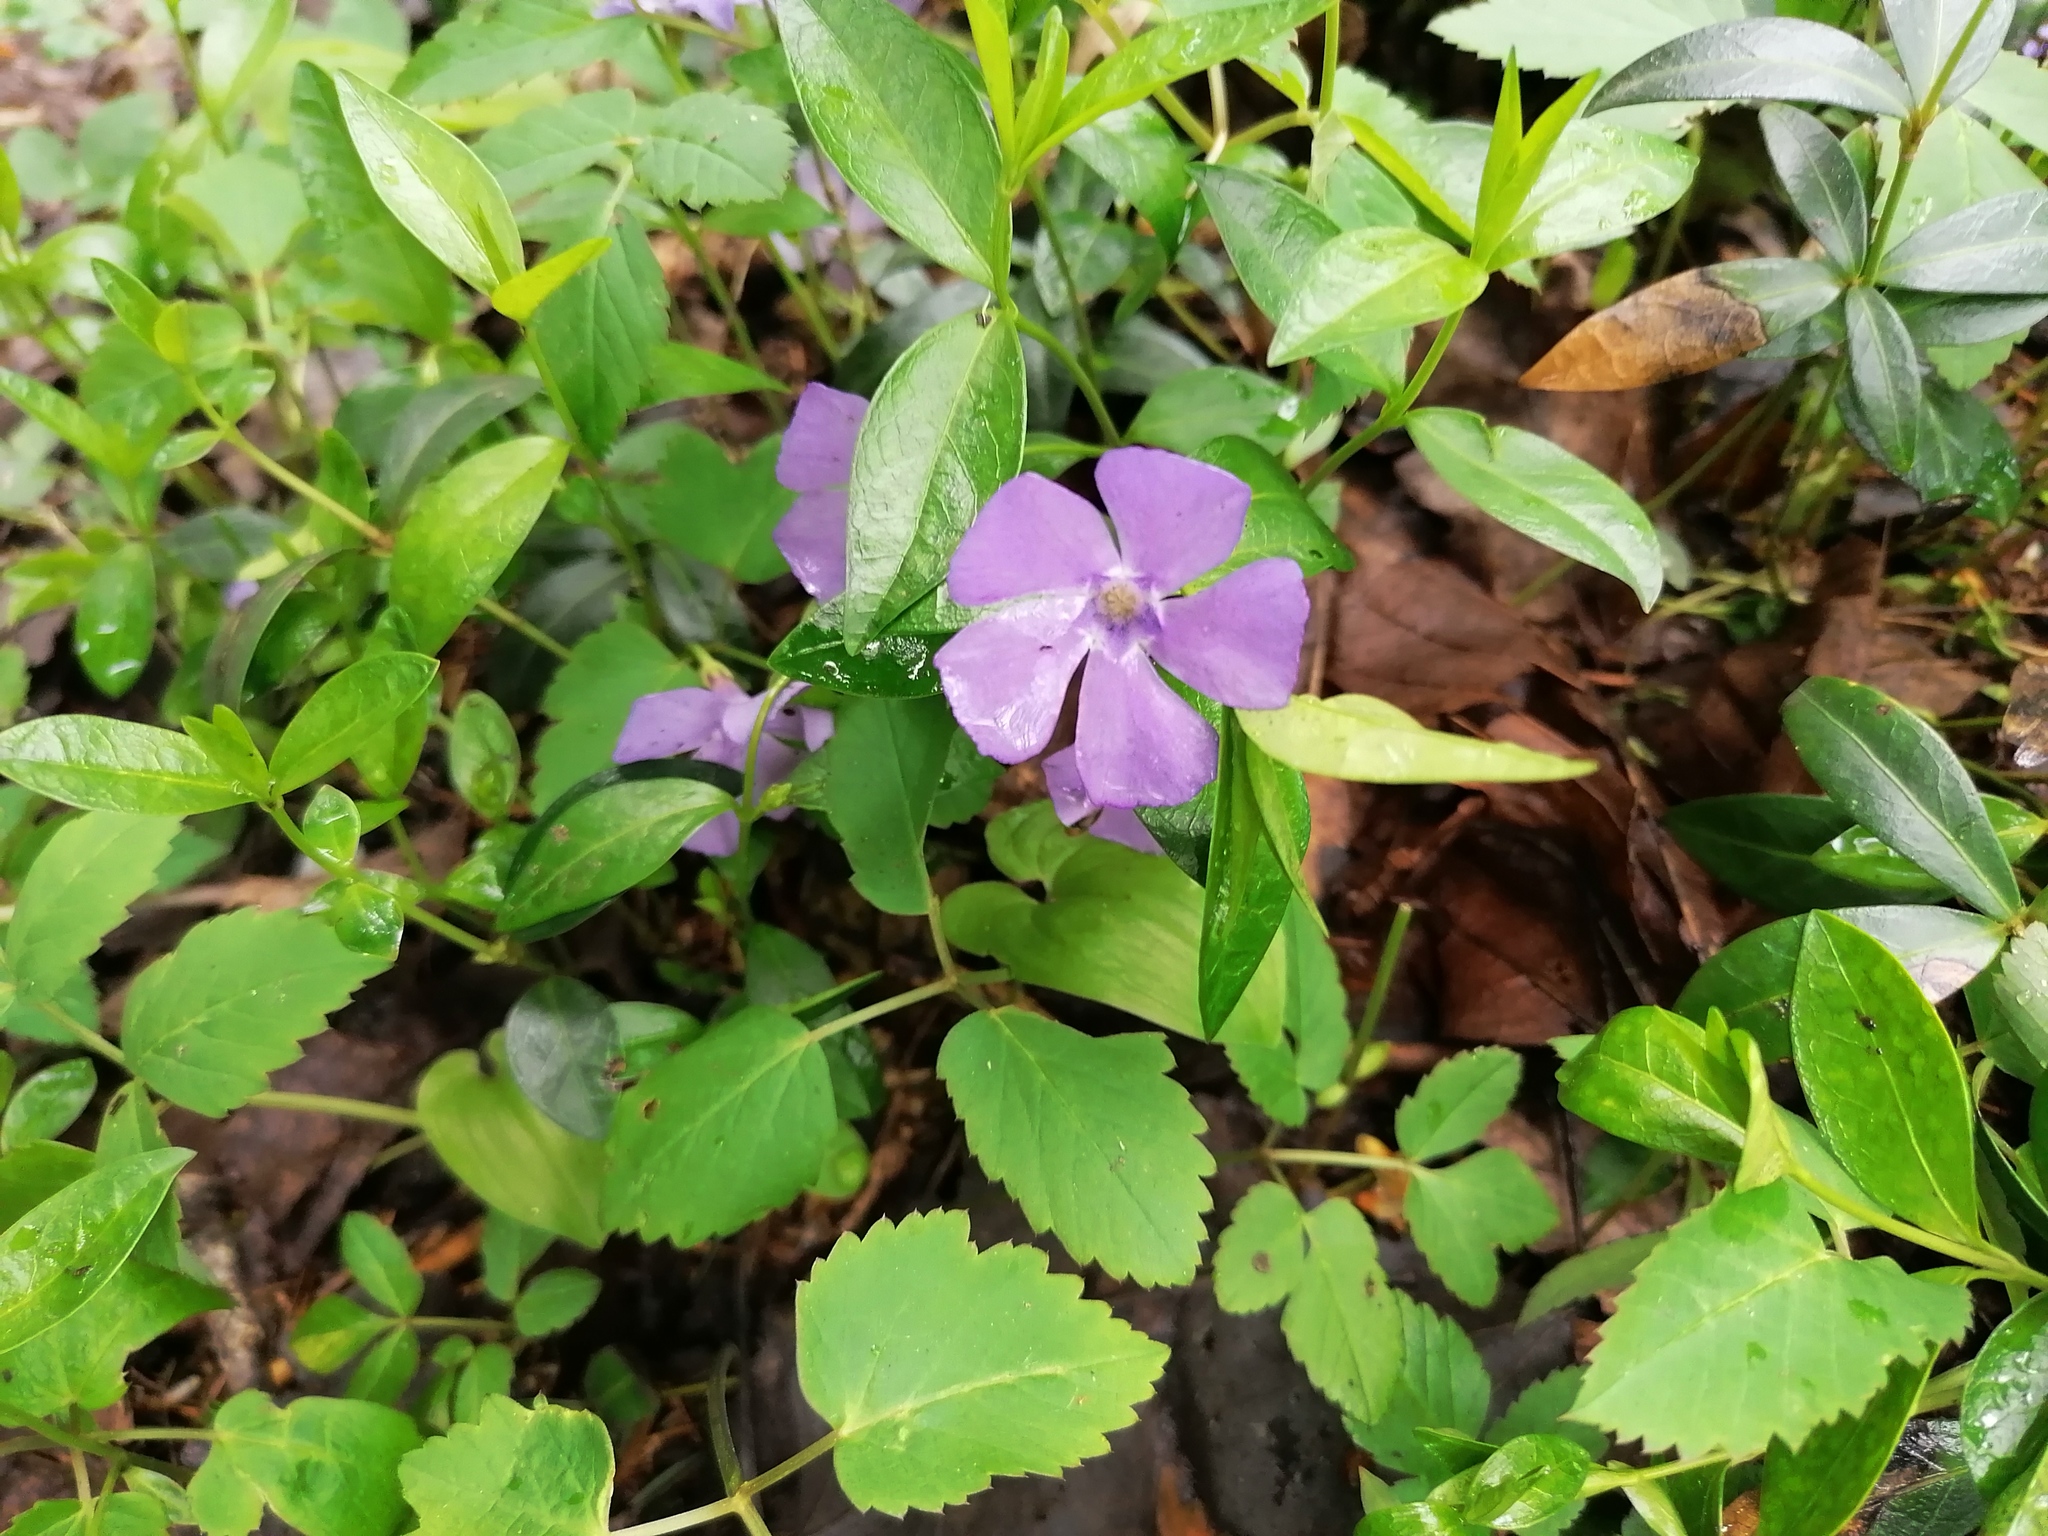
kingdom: Plantae
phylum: Tracheophyta
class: Magnoliopsida
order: Gentianales
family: Apocynaceae
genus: Vinca
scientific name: Vinca minor
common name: Lesser periwinkle
